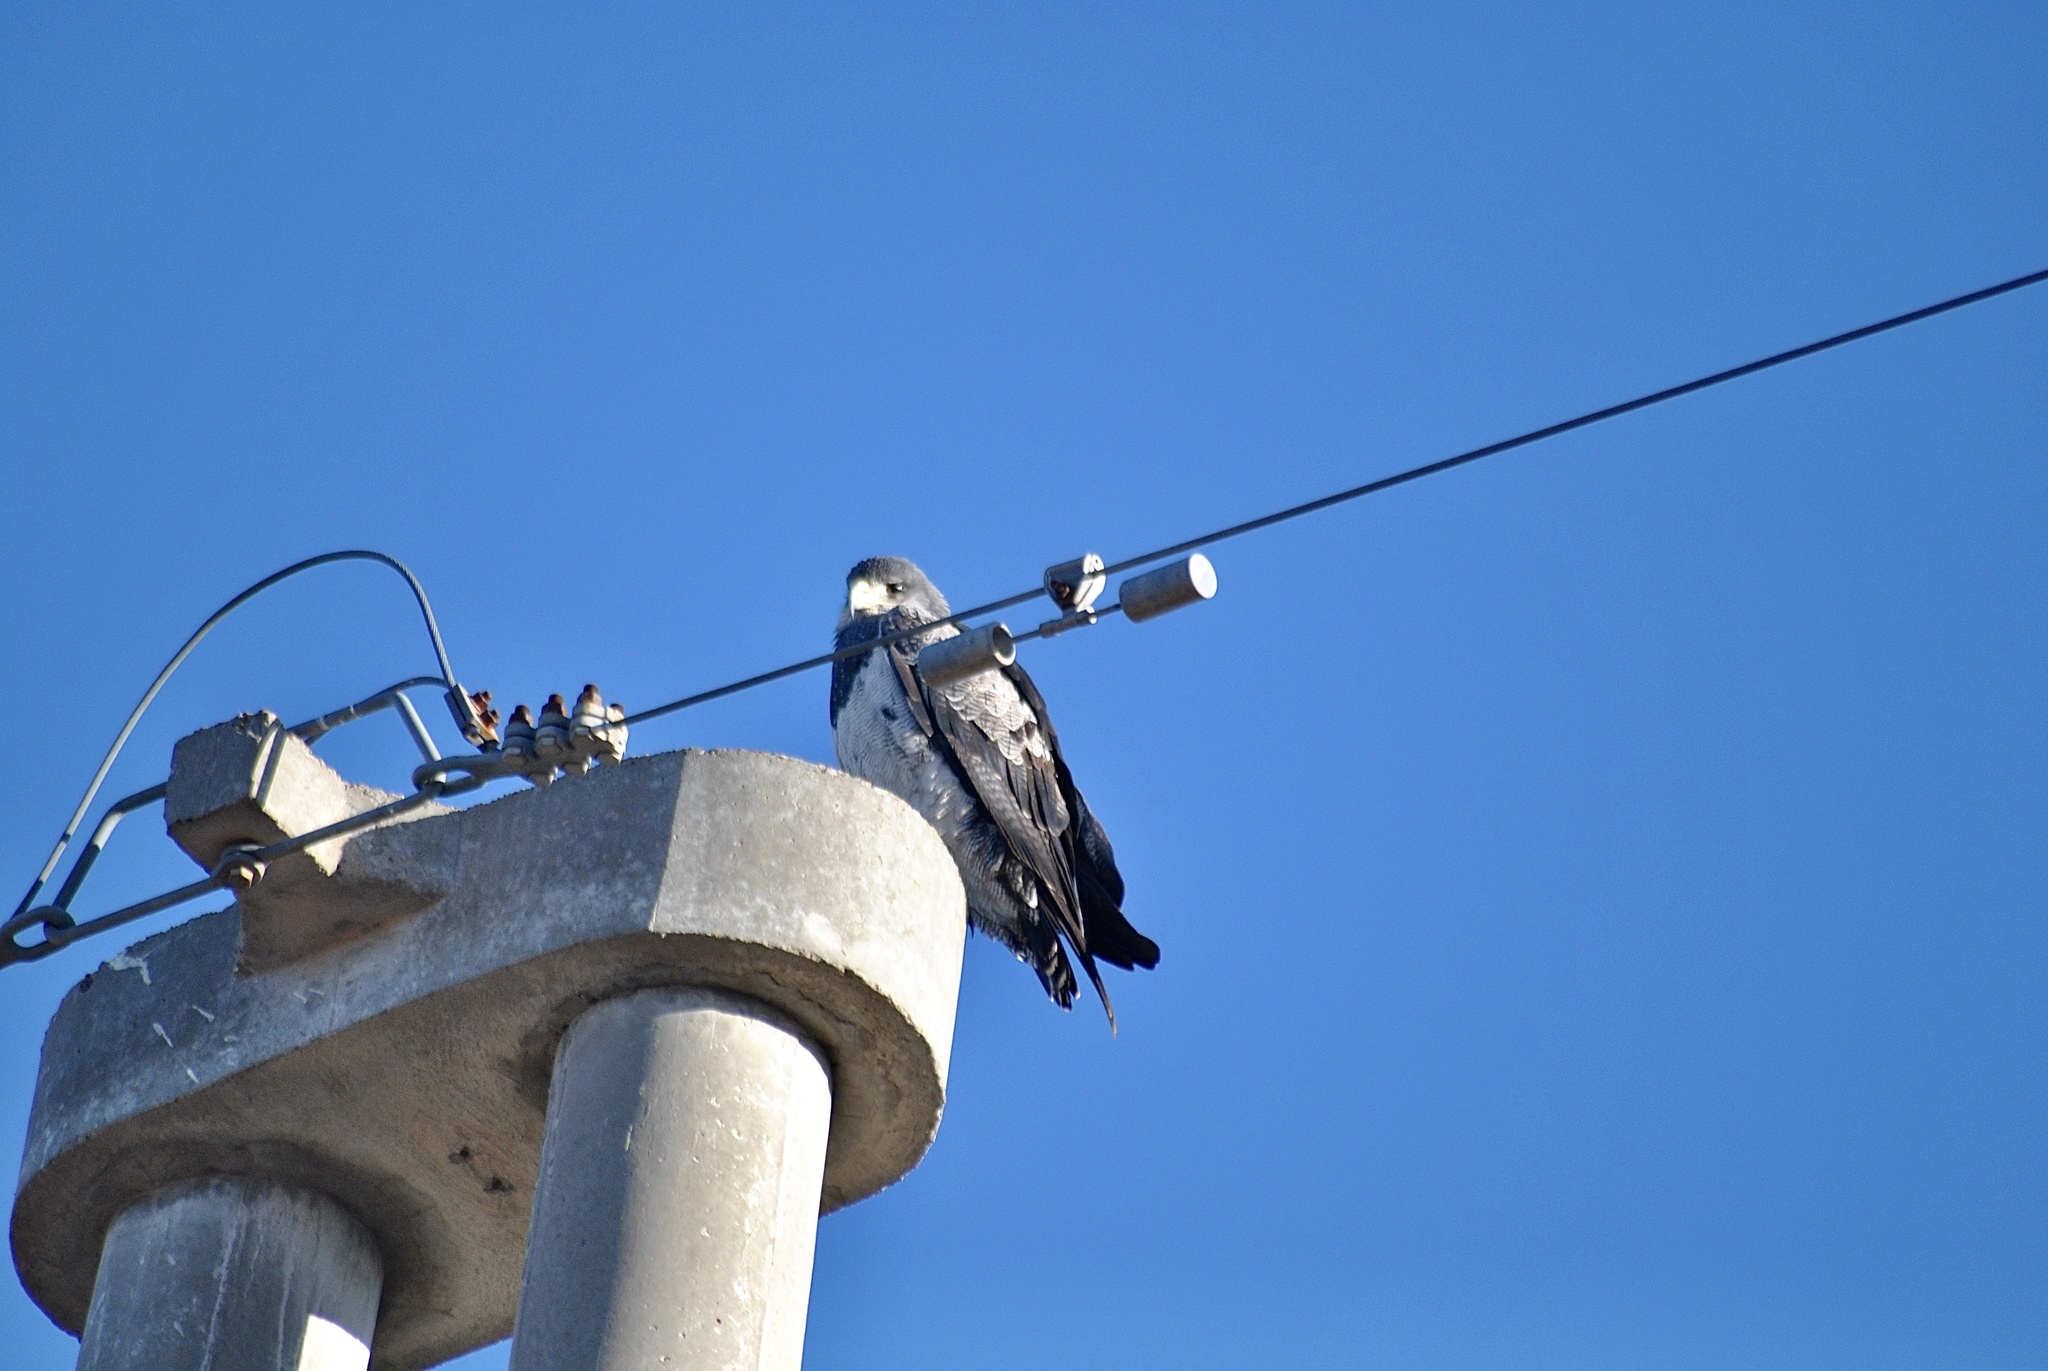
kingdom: Animalia
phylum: Chordata
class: Aves
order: Accipitriformes
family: Accipitridae
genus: Geranoaetus
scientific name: Geranoaetus melanoleucus
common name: Black-chested buzzard-eagle
